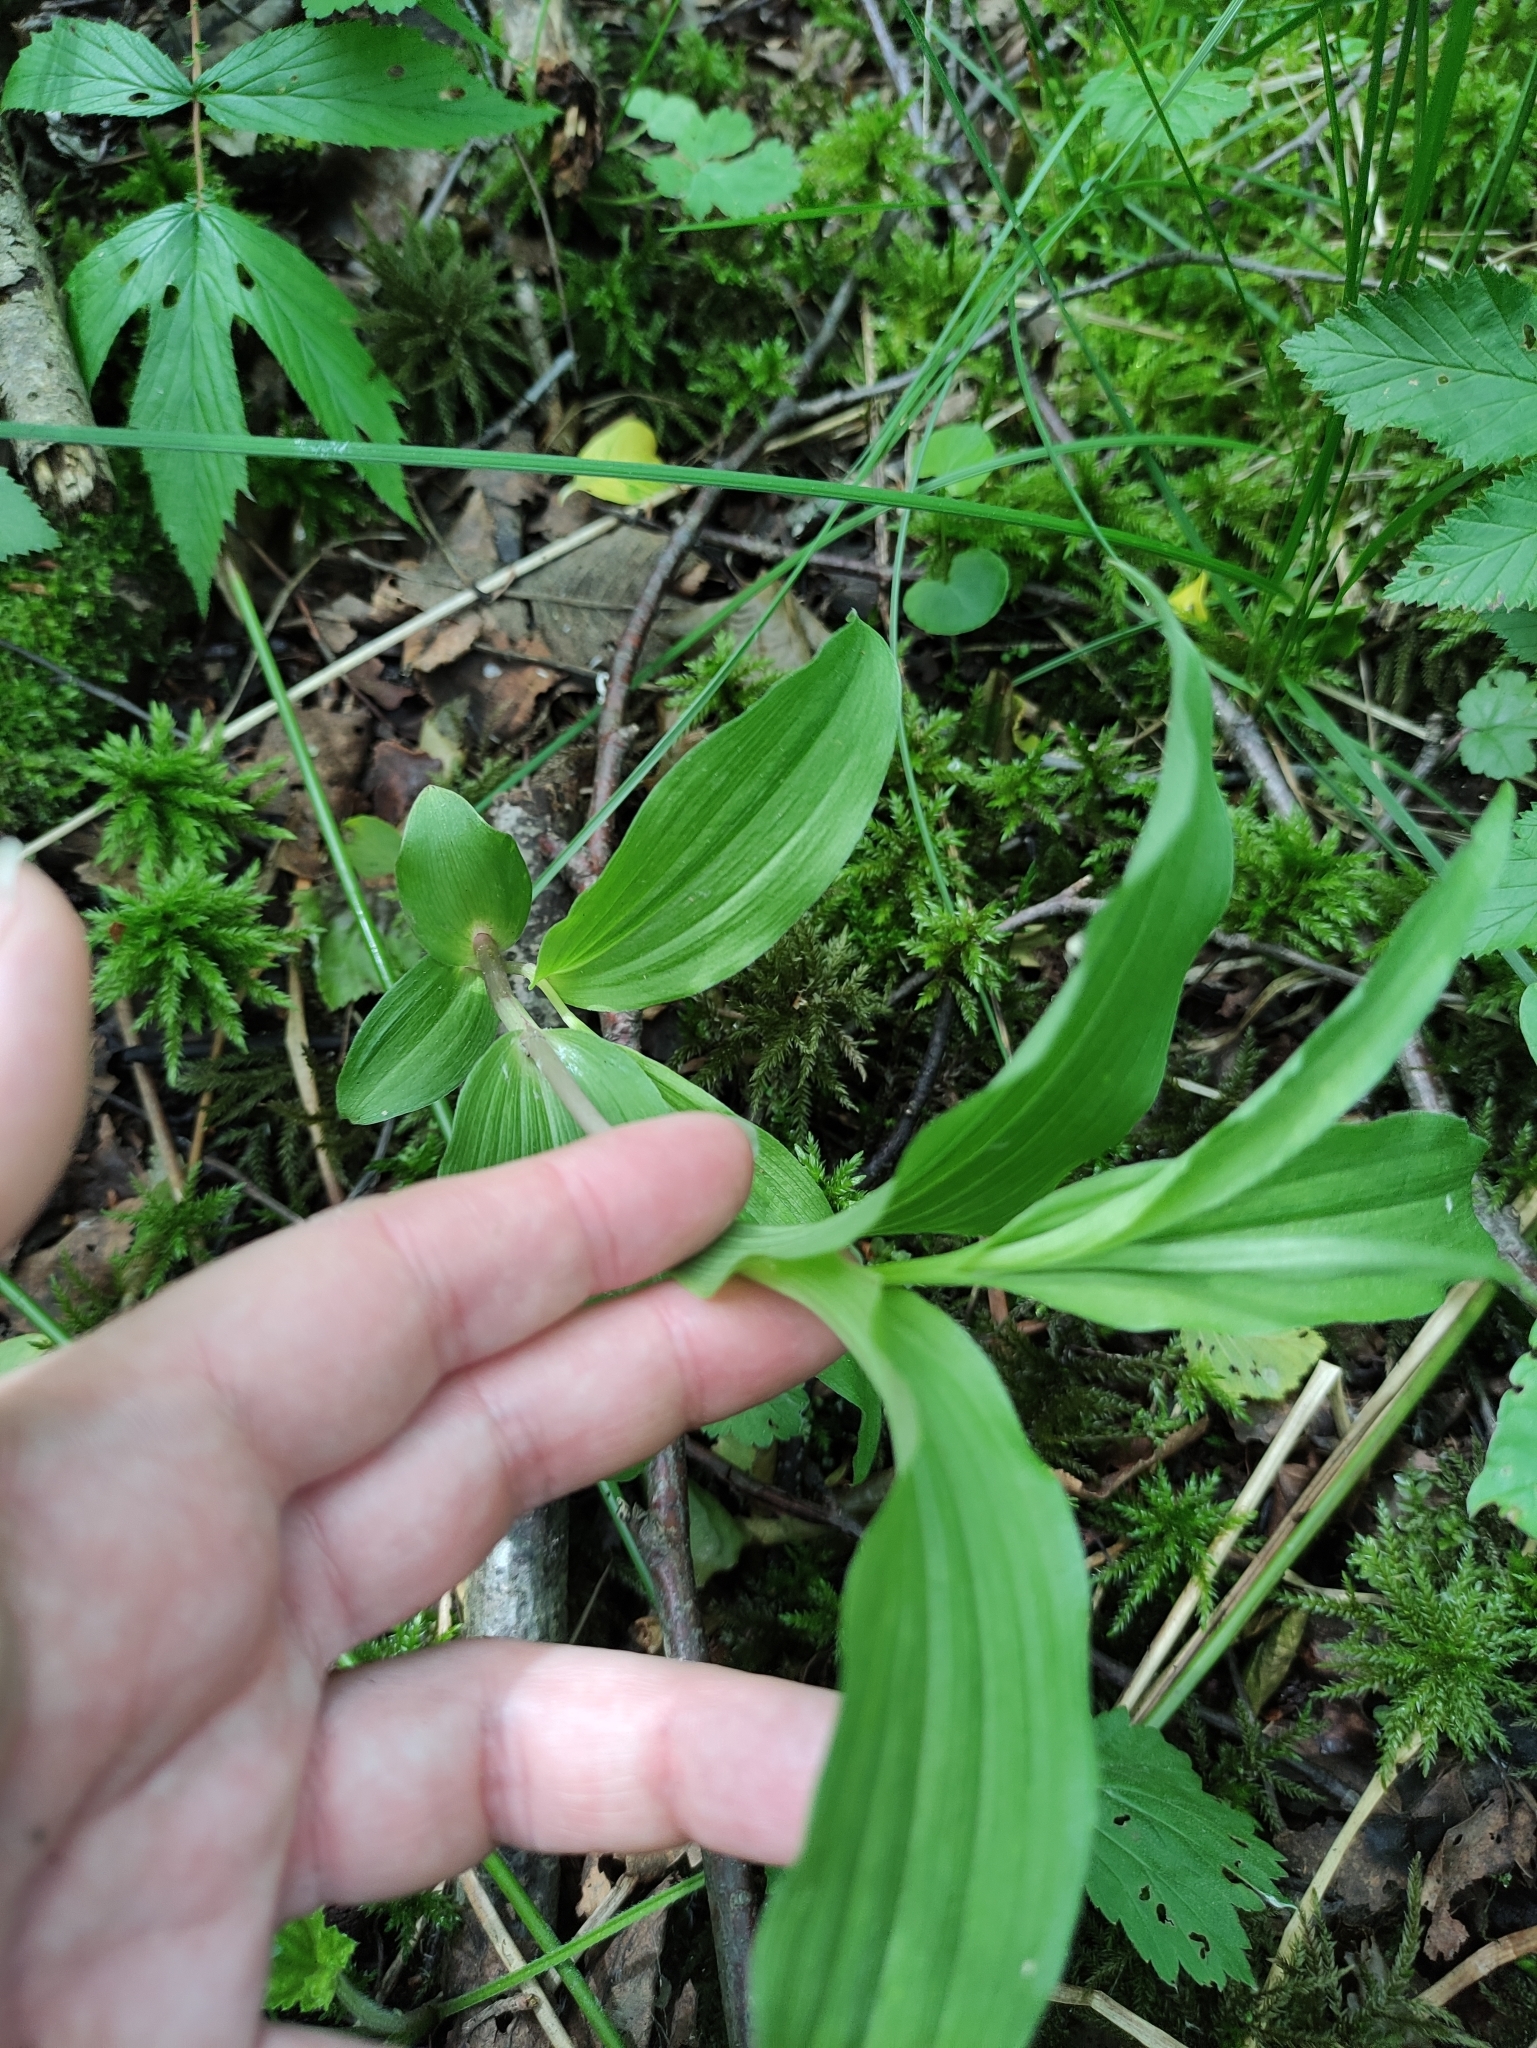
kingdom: Plantae
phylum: Tracheophyta
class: Liliopsida
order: Asparagales
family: Orchidaceae
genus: Epipactis
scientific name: Epipactis helleborine
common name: Broad-leaved helleborine
